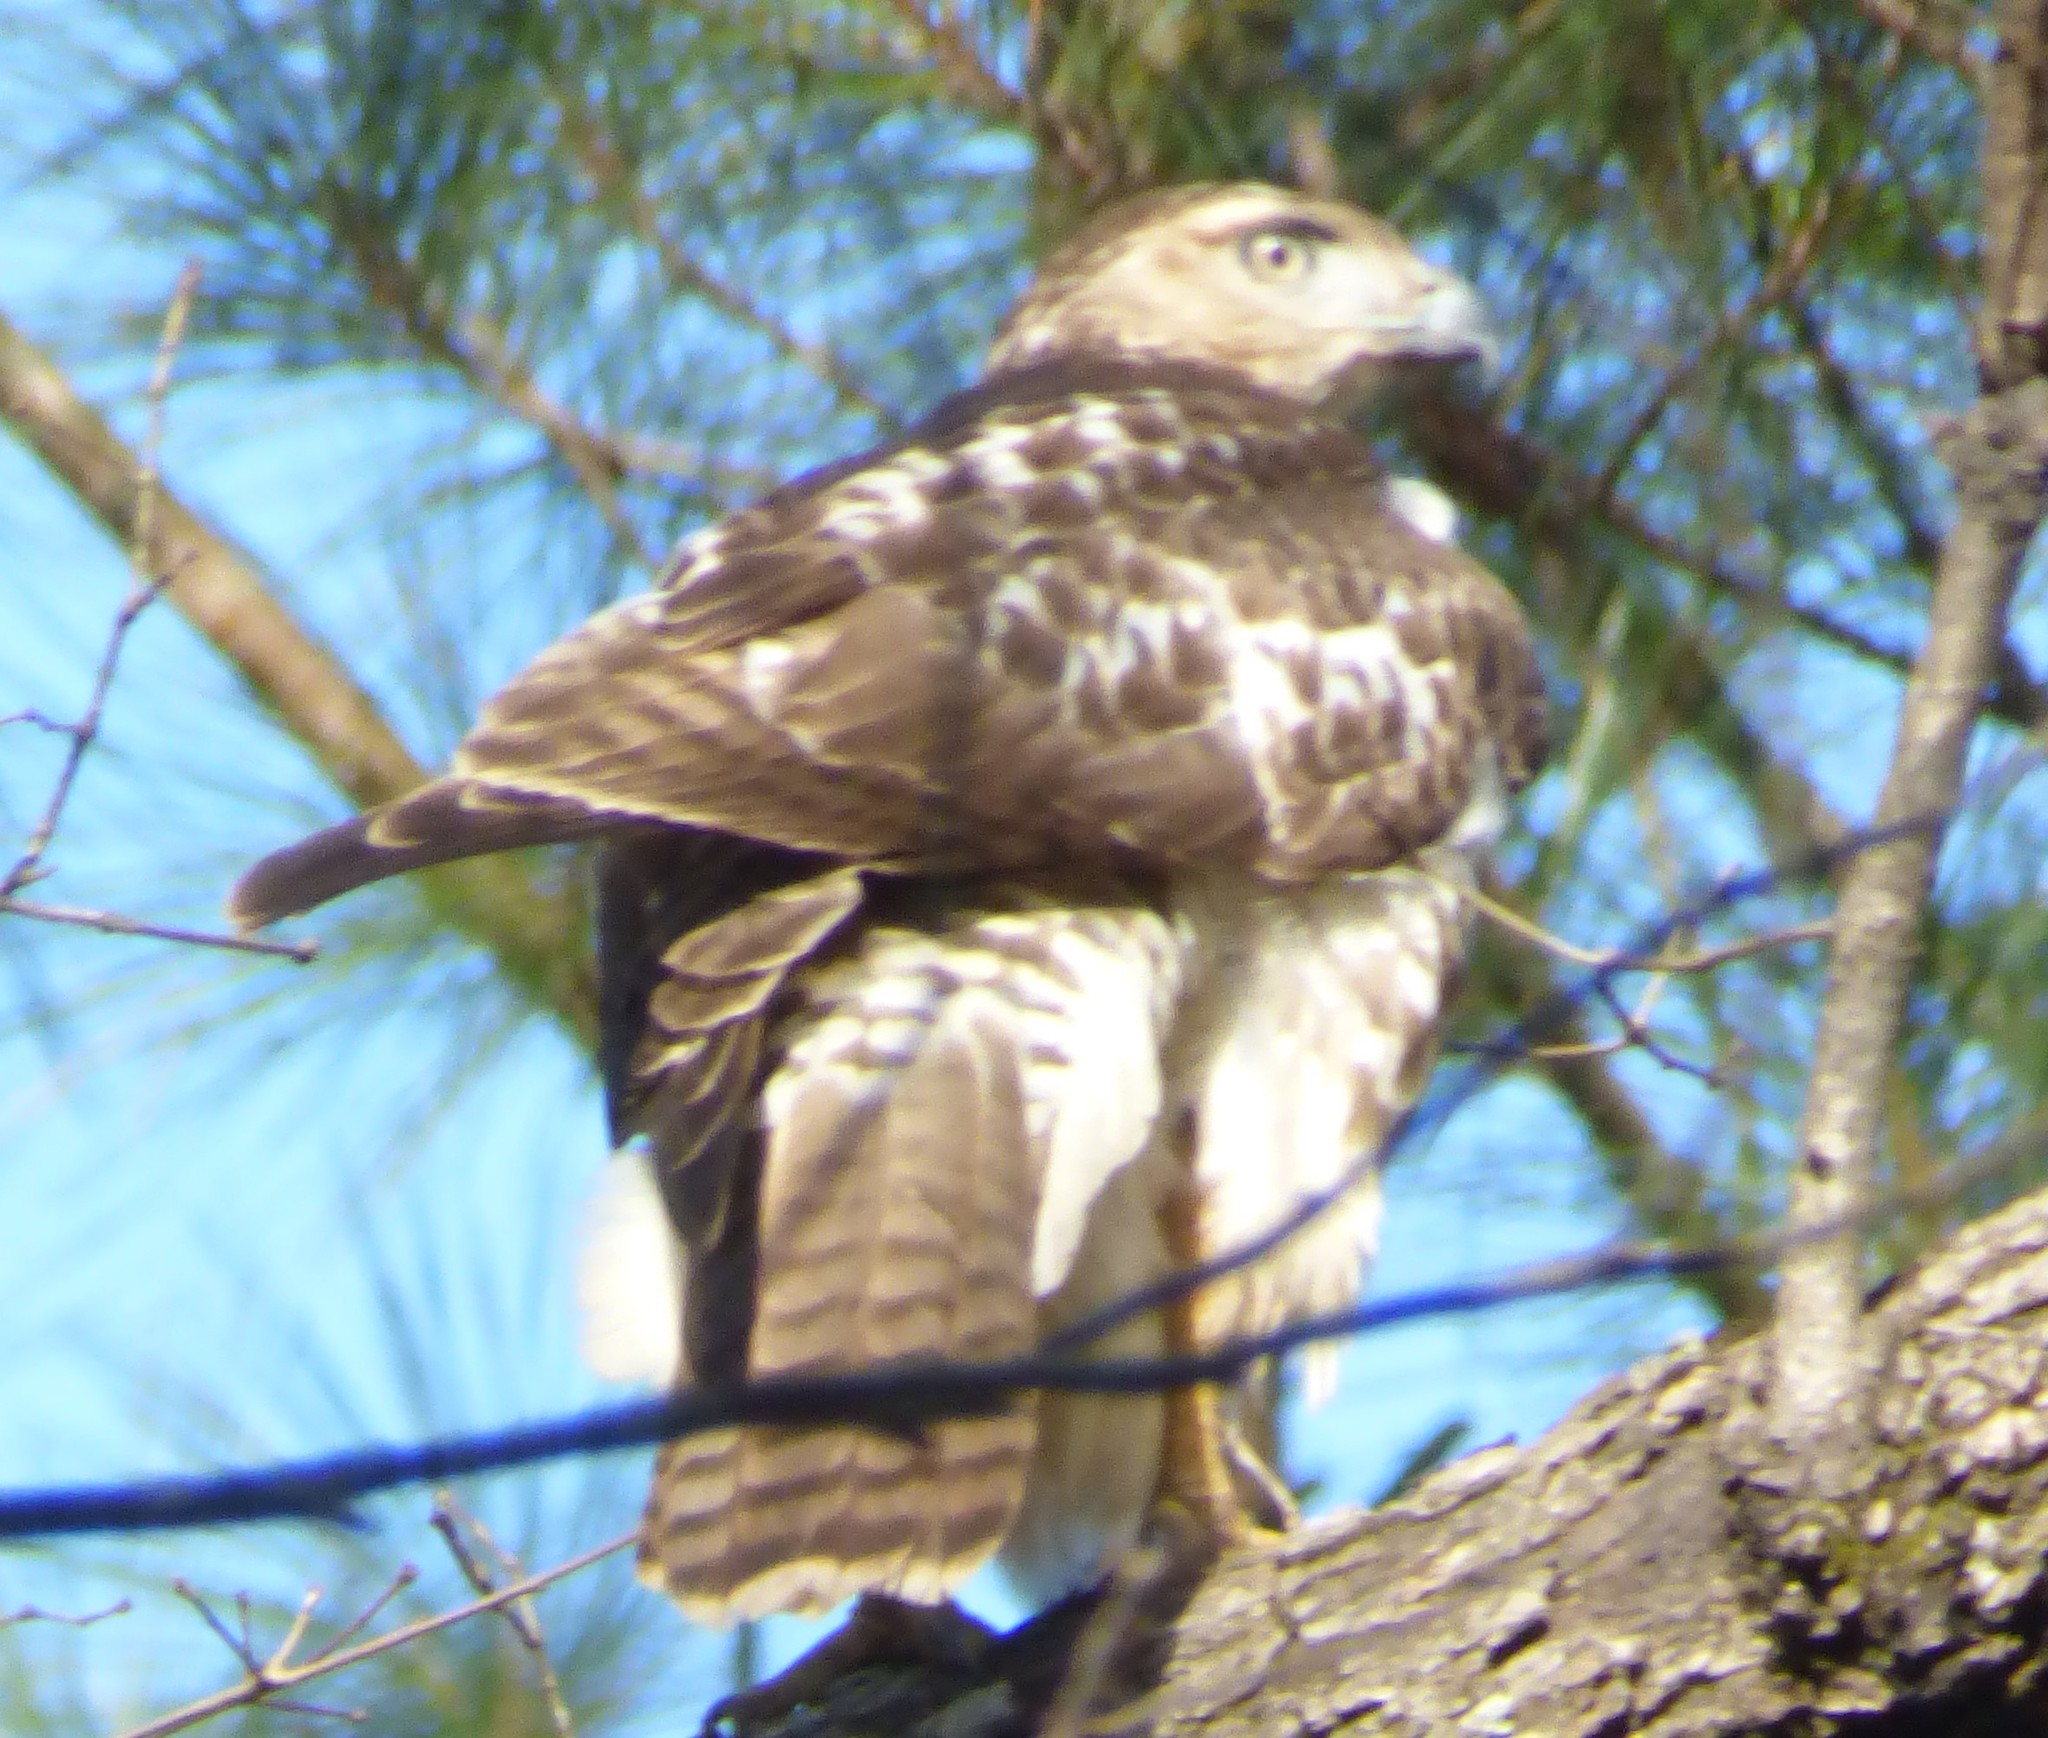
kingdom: Animalia
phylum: Chordata
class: Aves
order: Accipitriformes
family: Accipitridae
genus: Buteo
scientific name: Buteo jamaicensis
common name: Red-tailed hawk
